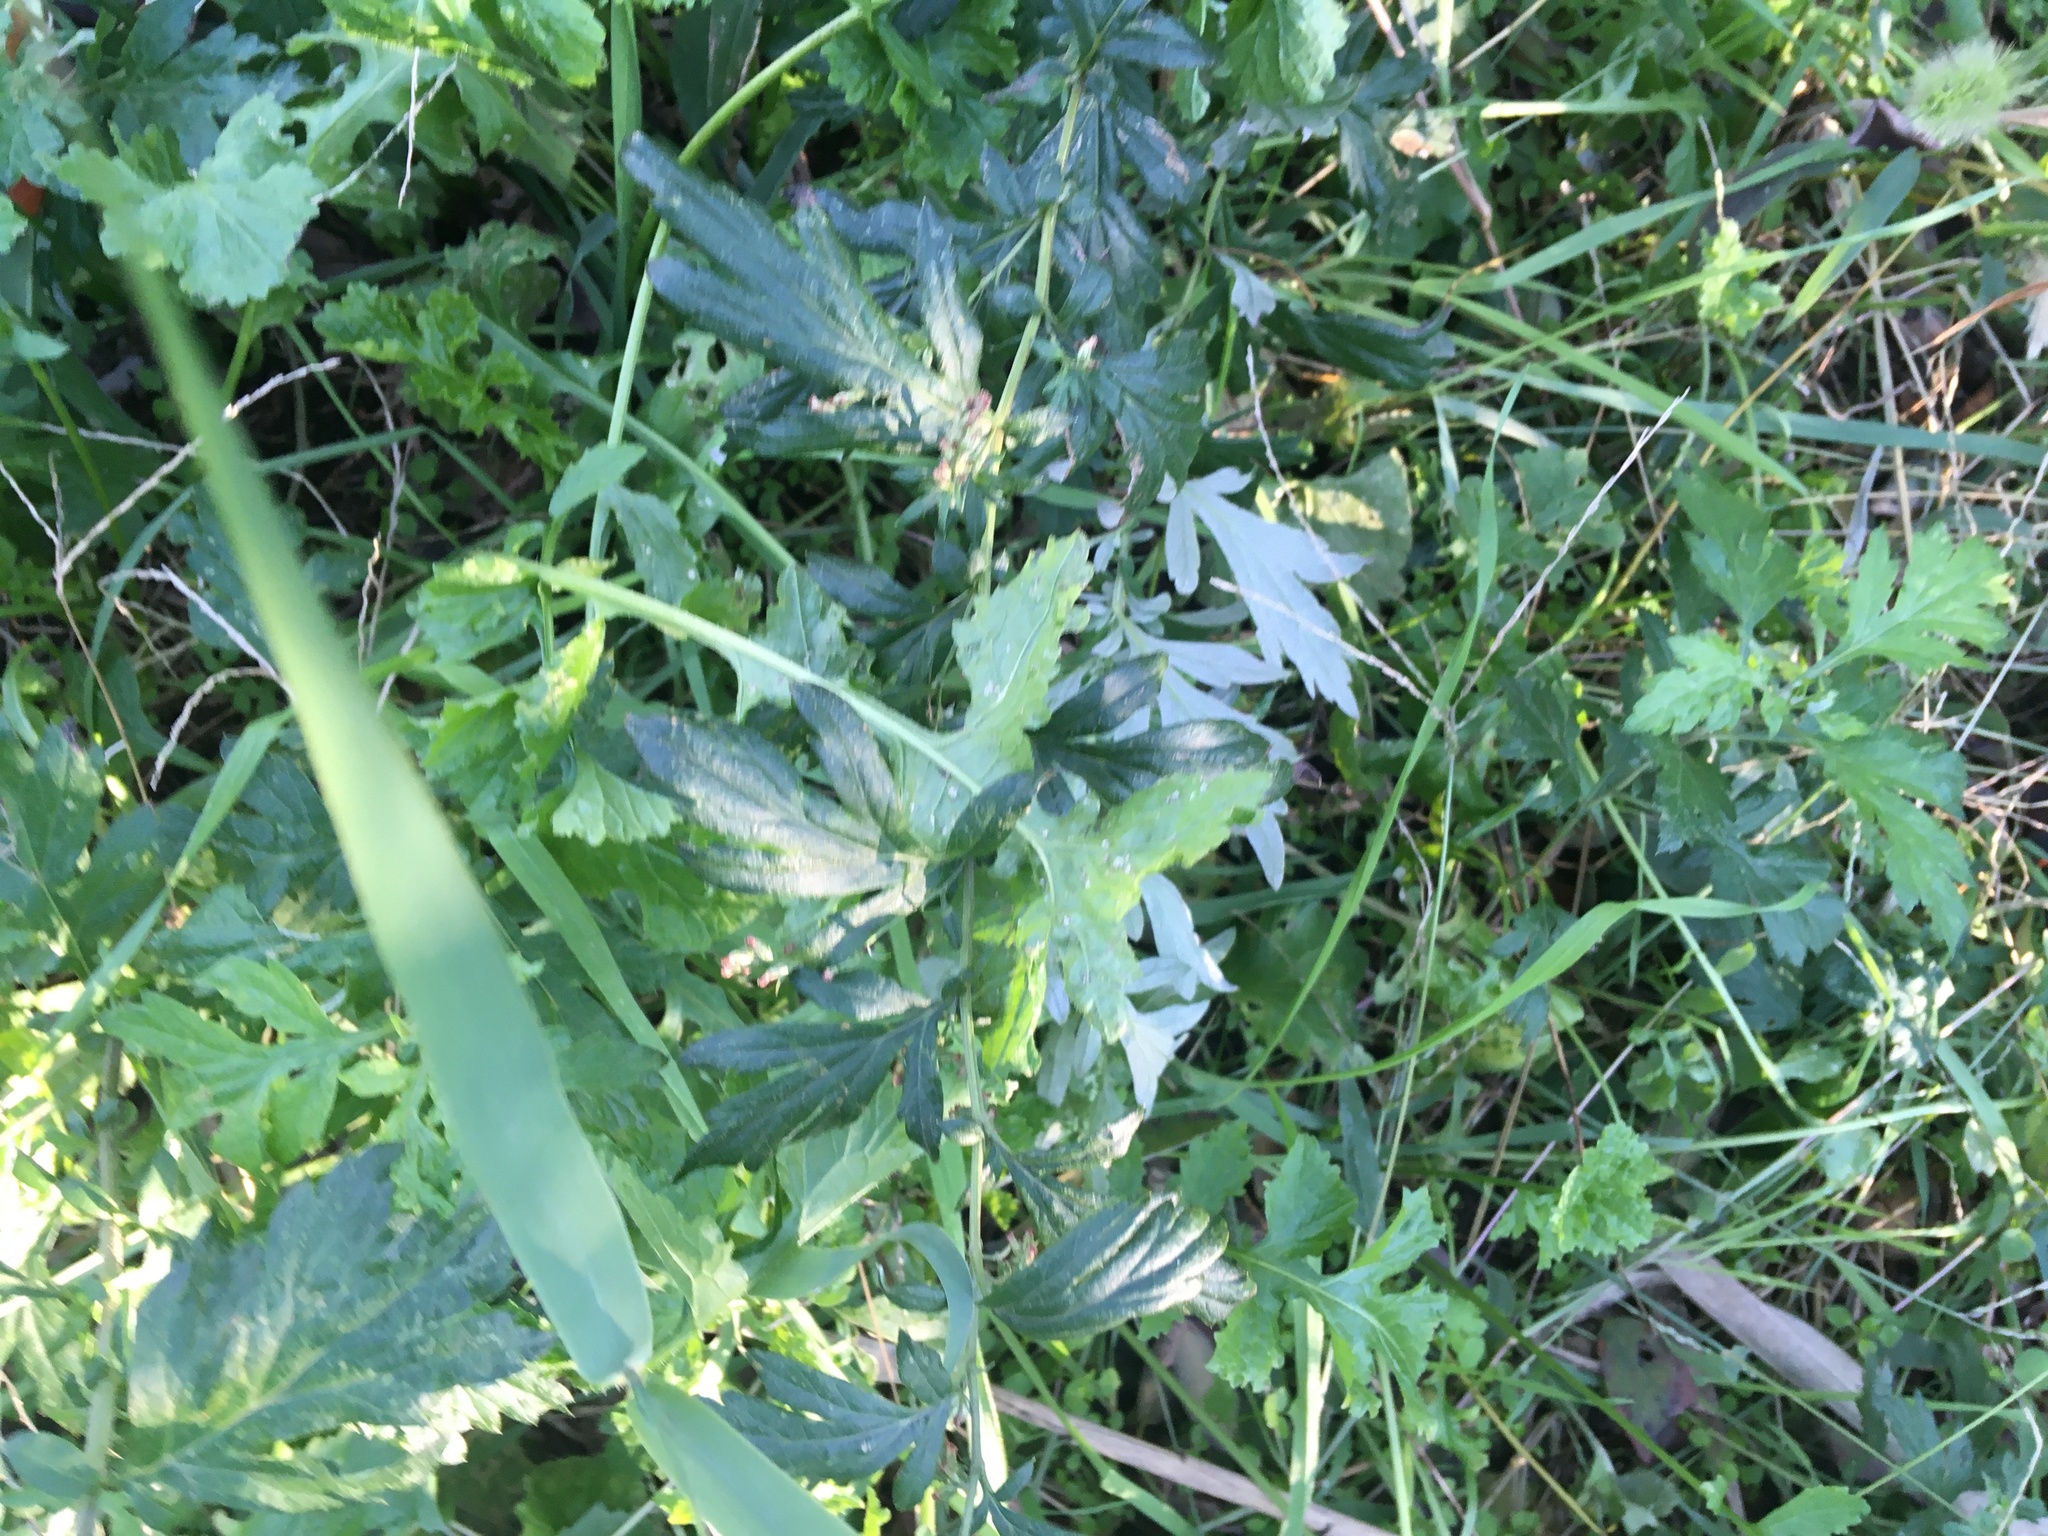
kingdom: Plantae
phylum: Tracheophyta
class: Magnoliopsida
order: Asterales
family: Asteraceae
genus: Artemisia
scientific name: Artemisia vulgaris
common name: Mugwort
